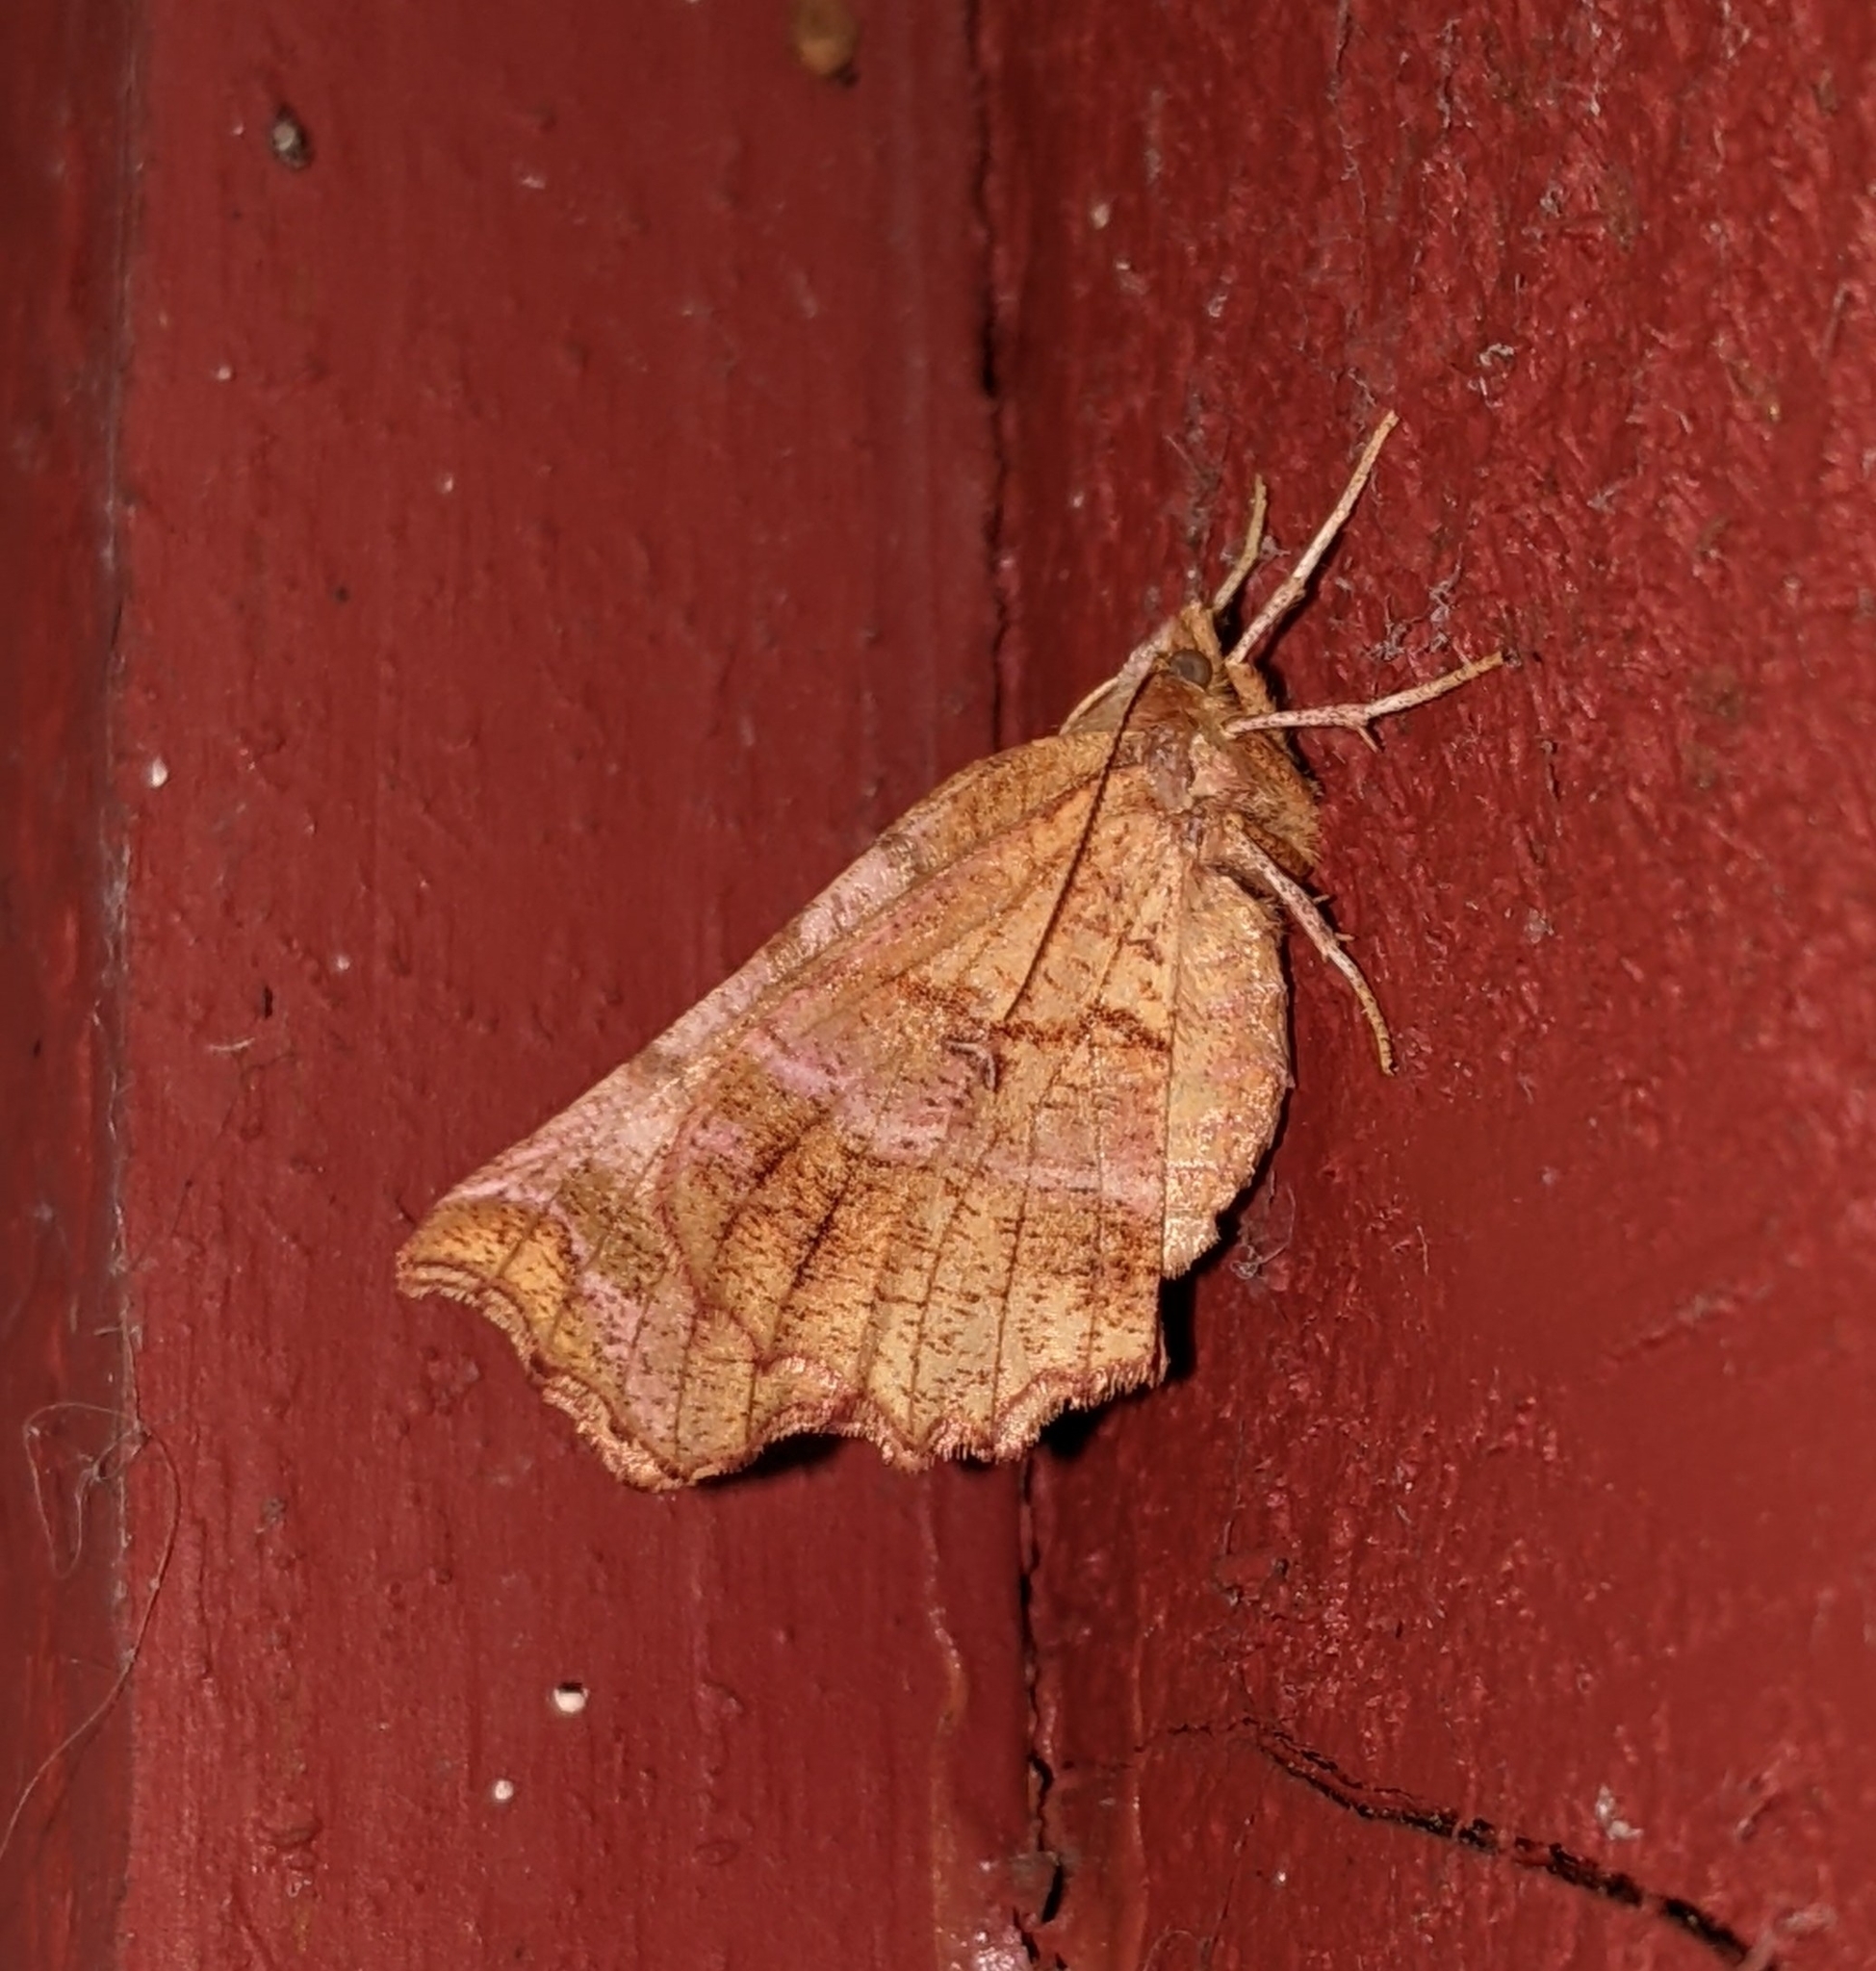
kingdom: Animalia
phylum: Arthropoda
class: Insecta
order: Lepidoptera
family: Geometridae
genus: Selenia
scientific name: Selenia alciphearia
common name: Brown-tipped thorn
